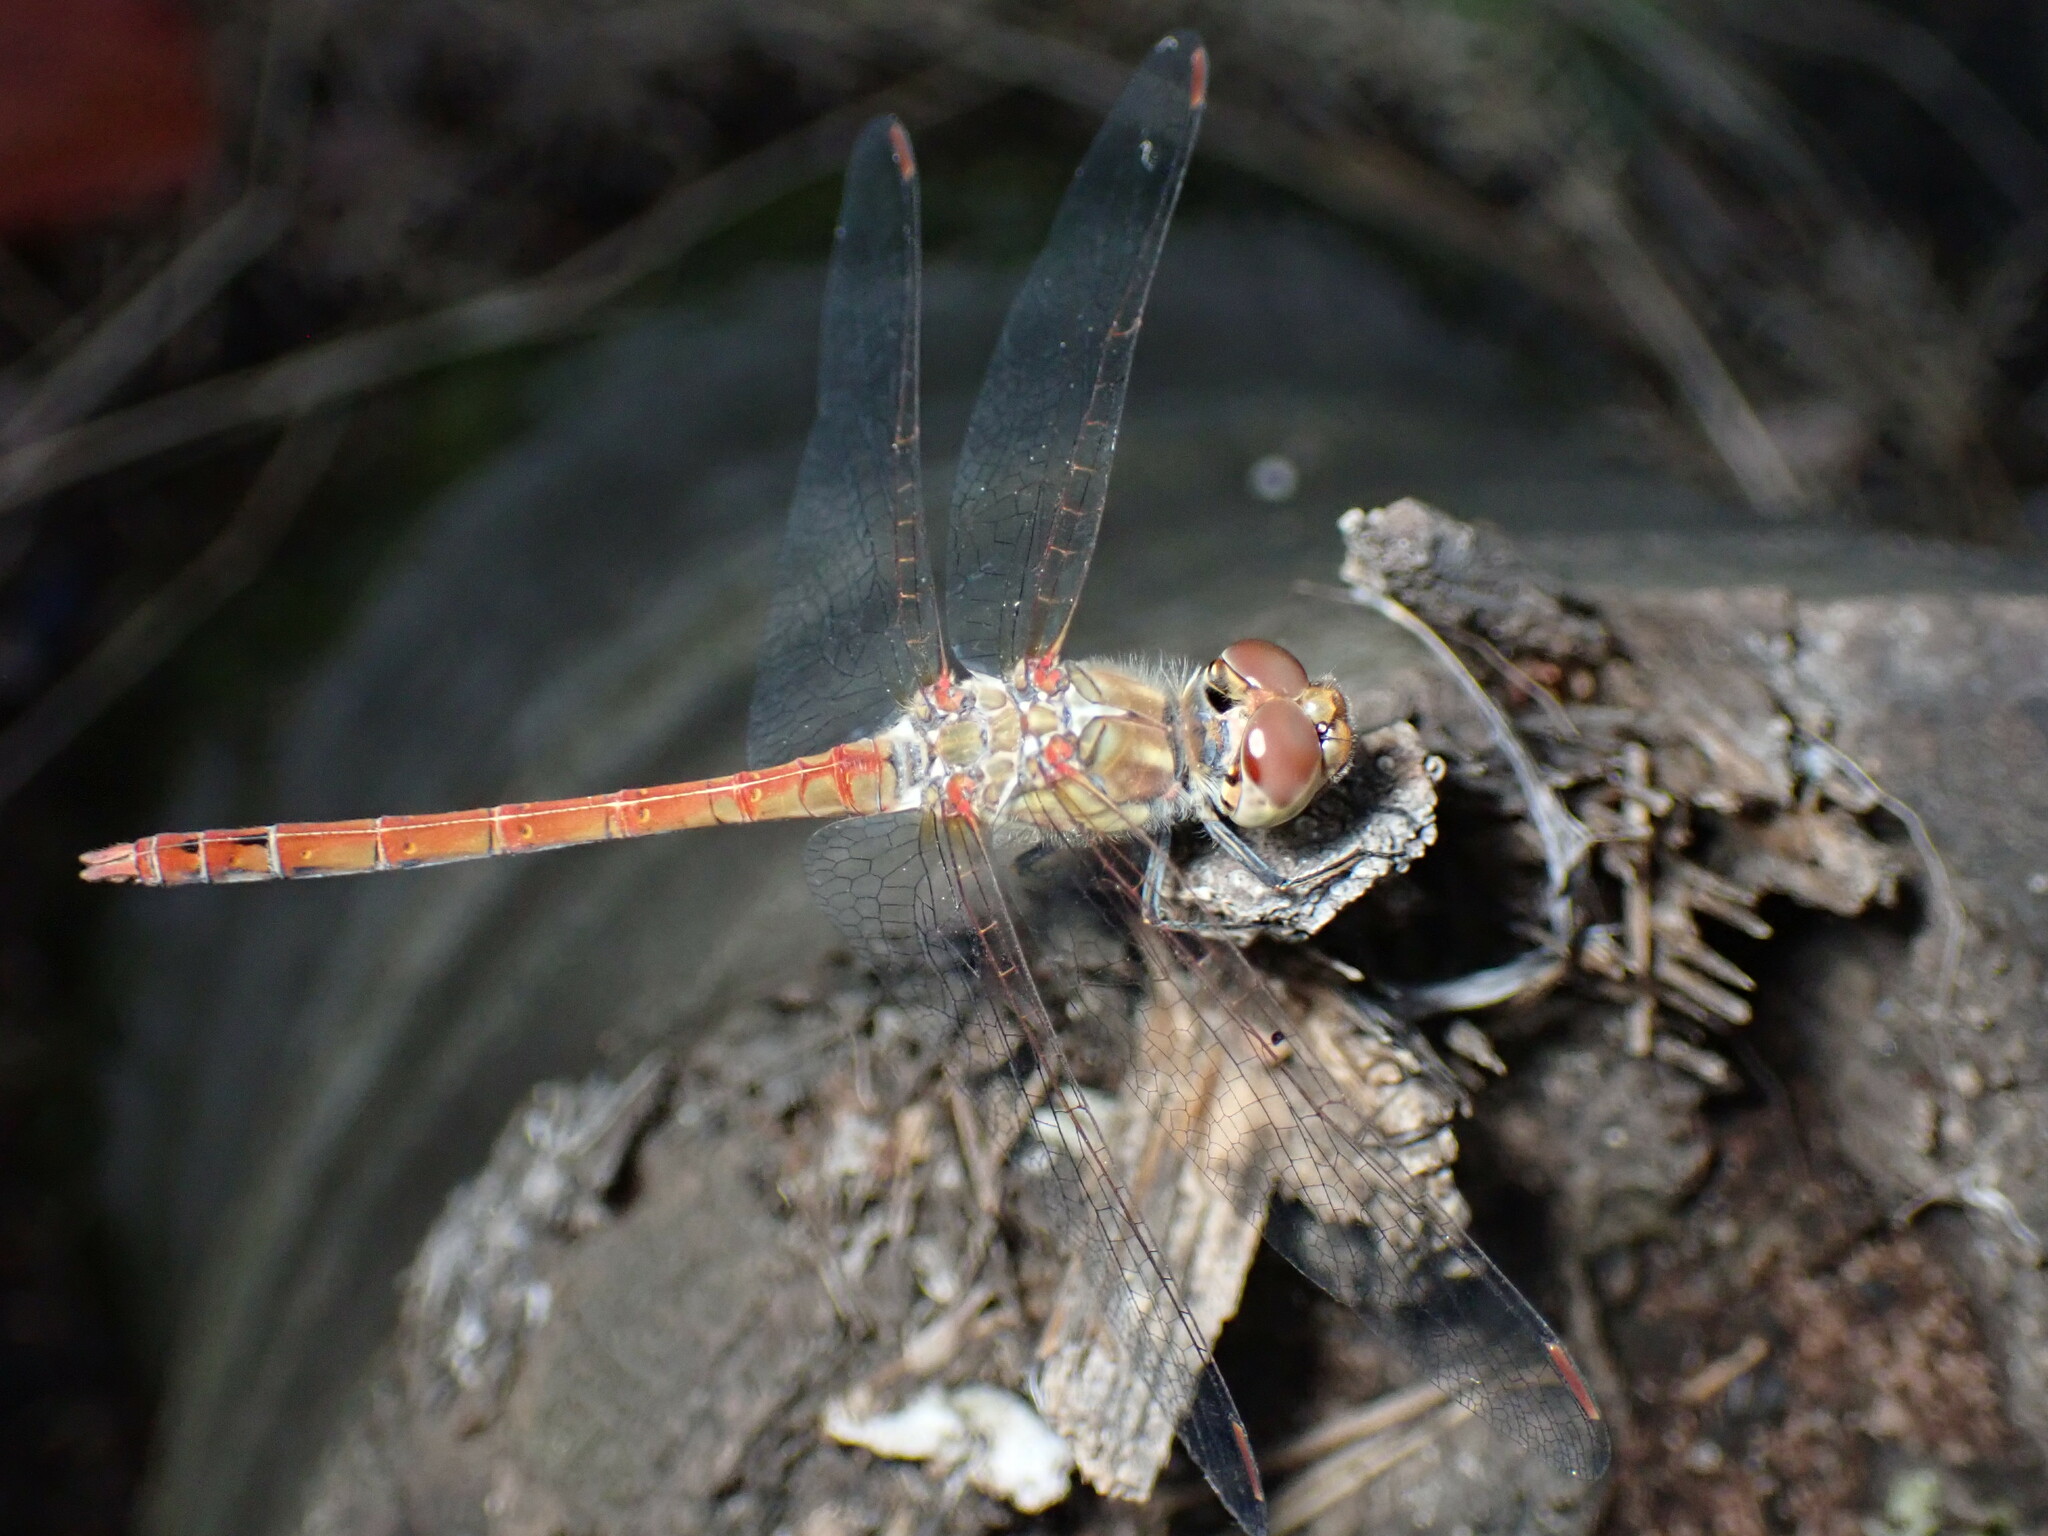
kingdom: Animalia
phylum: Arthropoda
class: Insecta
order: Odonata
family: Libellulidae
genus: Sympetrum
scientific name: Sympetrum striolatum
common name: Common darter
